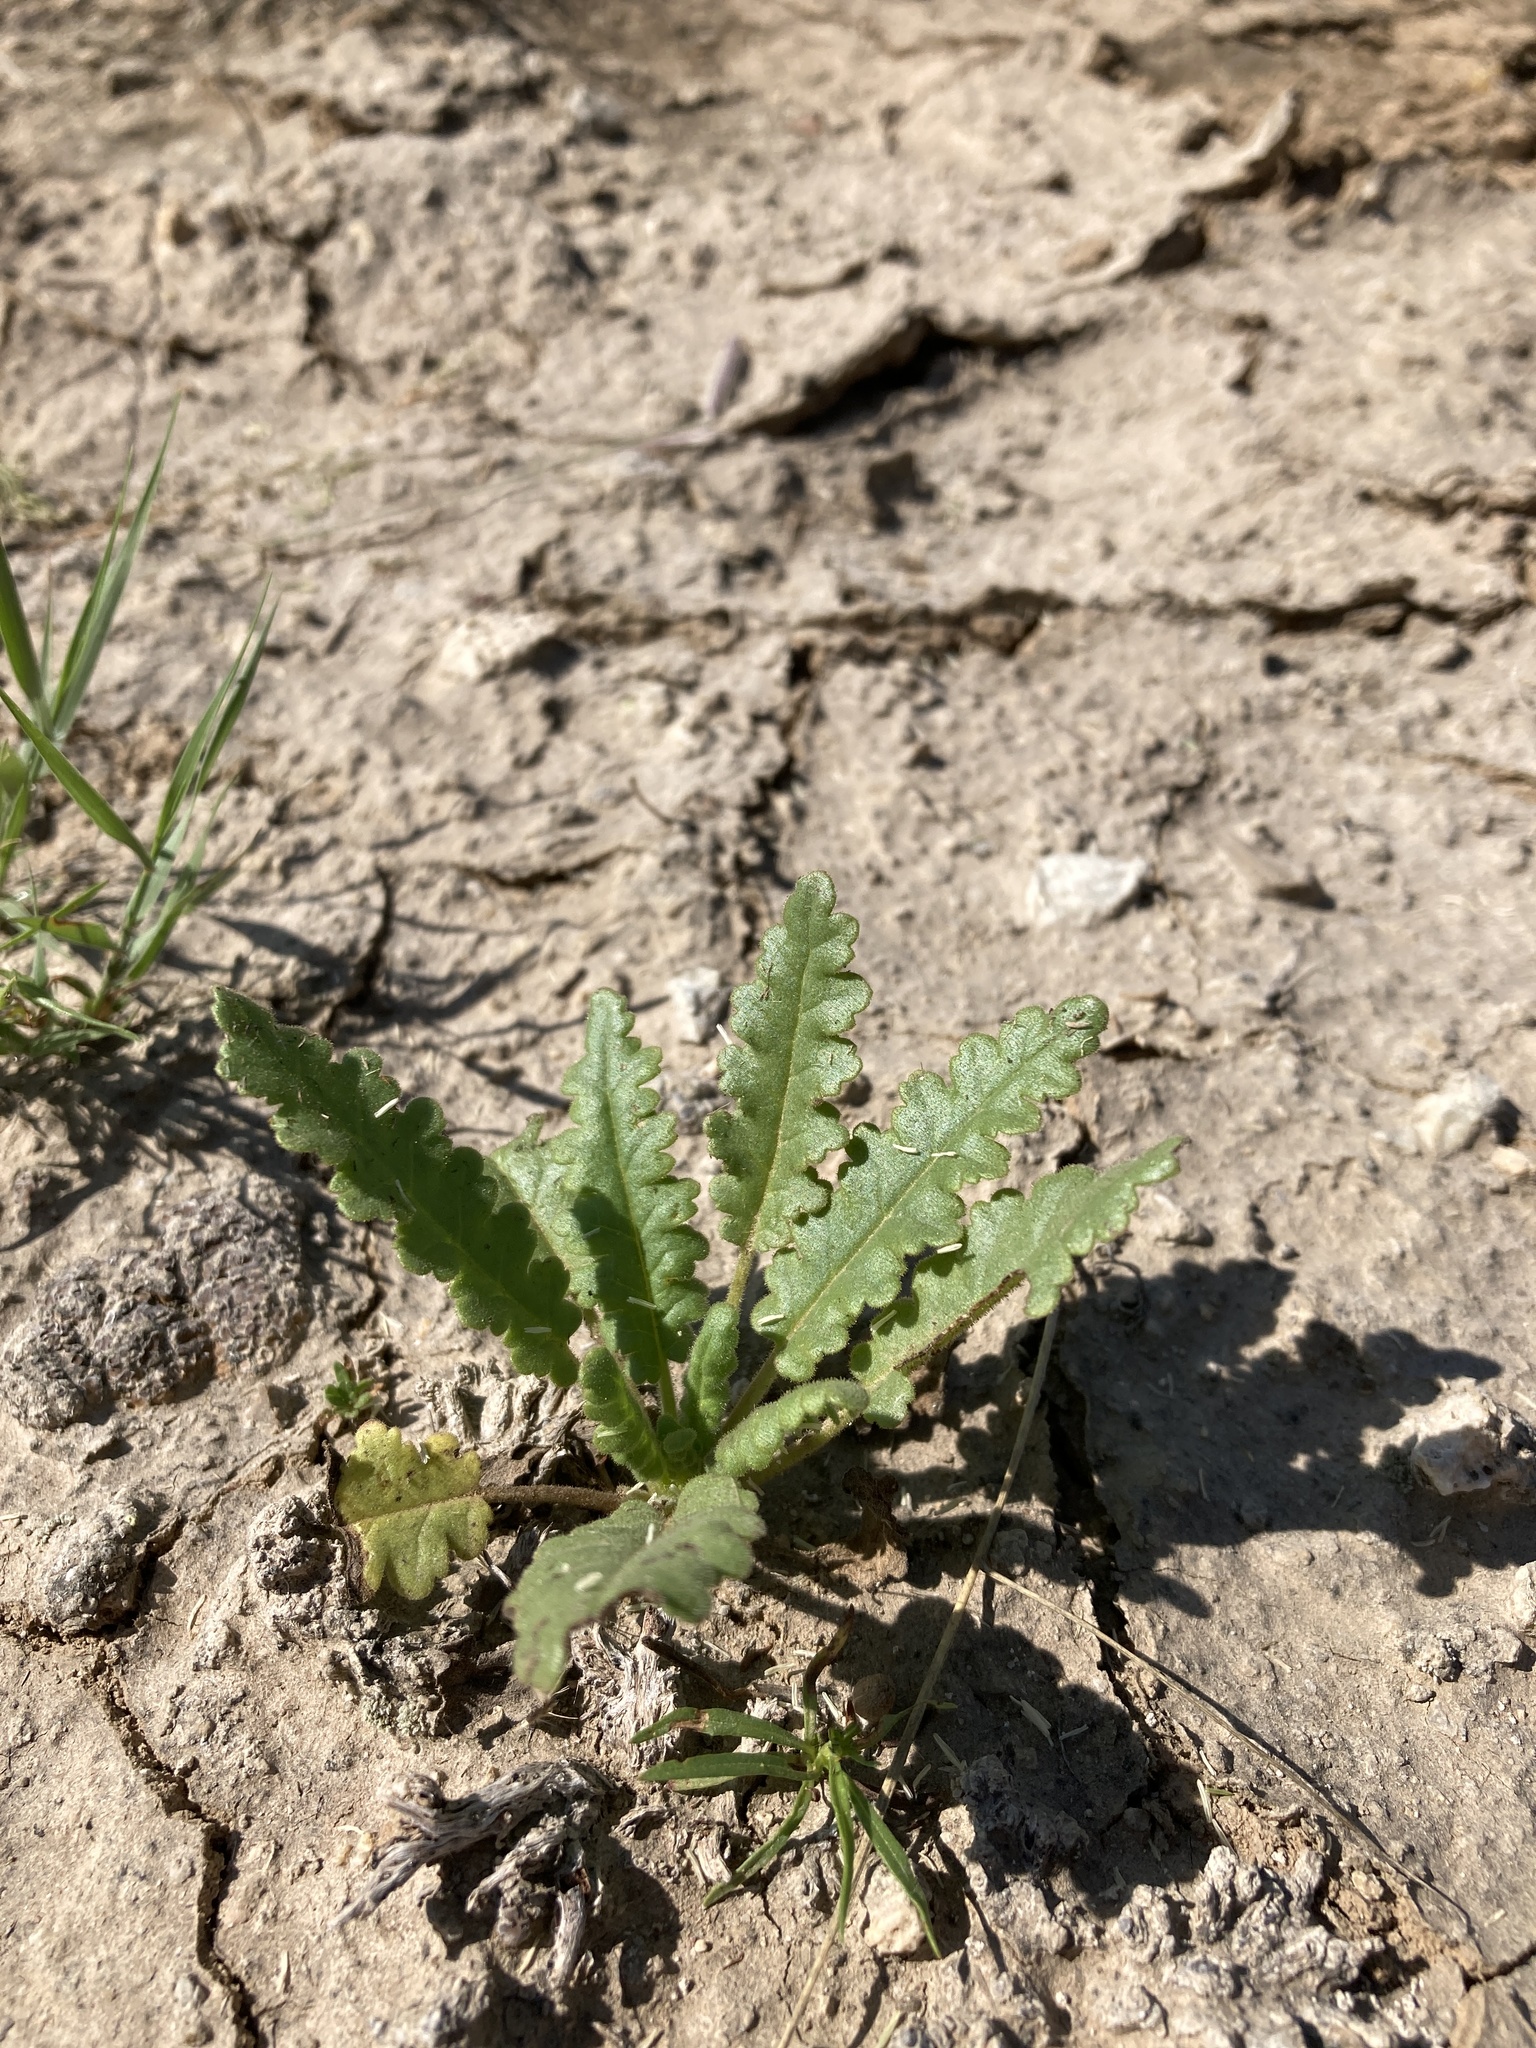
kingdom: Plantae
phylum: Tracheophyta
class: Magnoliopsida
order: Boraginales
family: Hydrophyllaceae
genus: Phacelia
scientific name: Phacelia integrifolia
